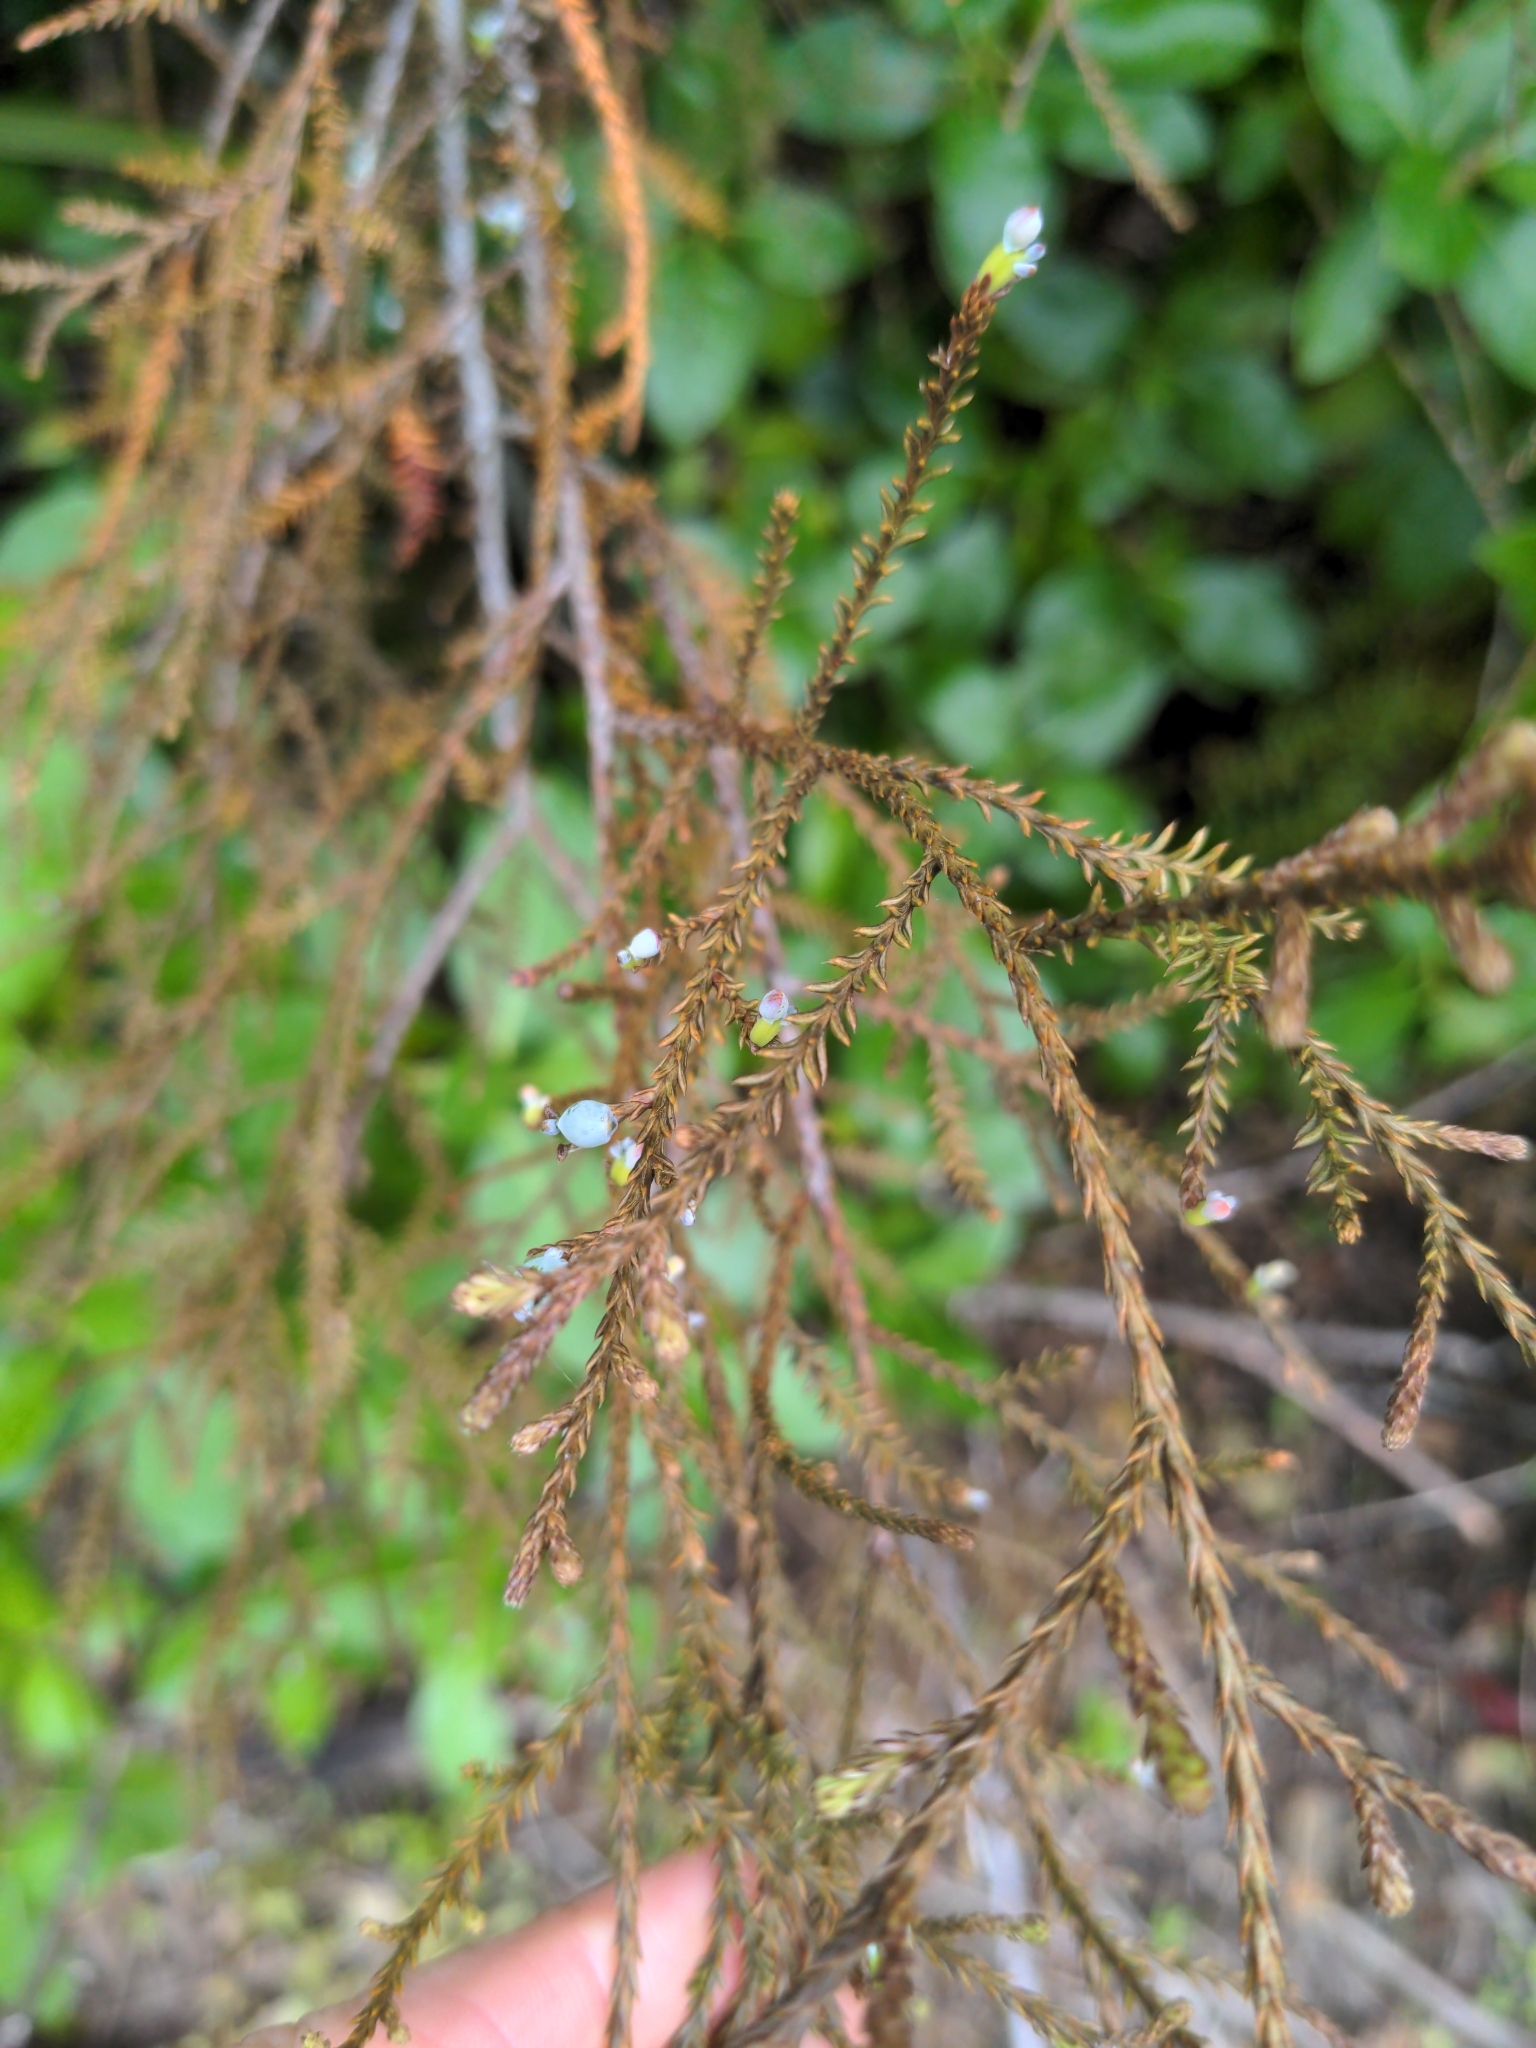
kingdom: Plantae
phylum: Tracheophyta
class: Pinopsida
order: Pinales
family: Podocarpaceae
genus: Dacrycarpus
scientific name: Dacrycarpus dacrydioides
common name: White pine
